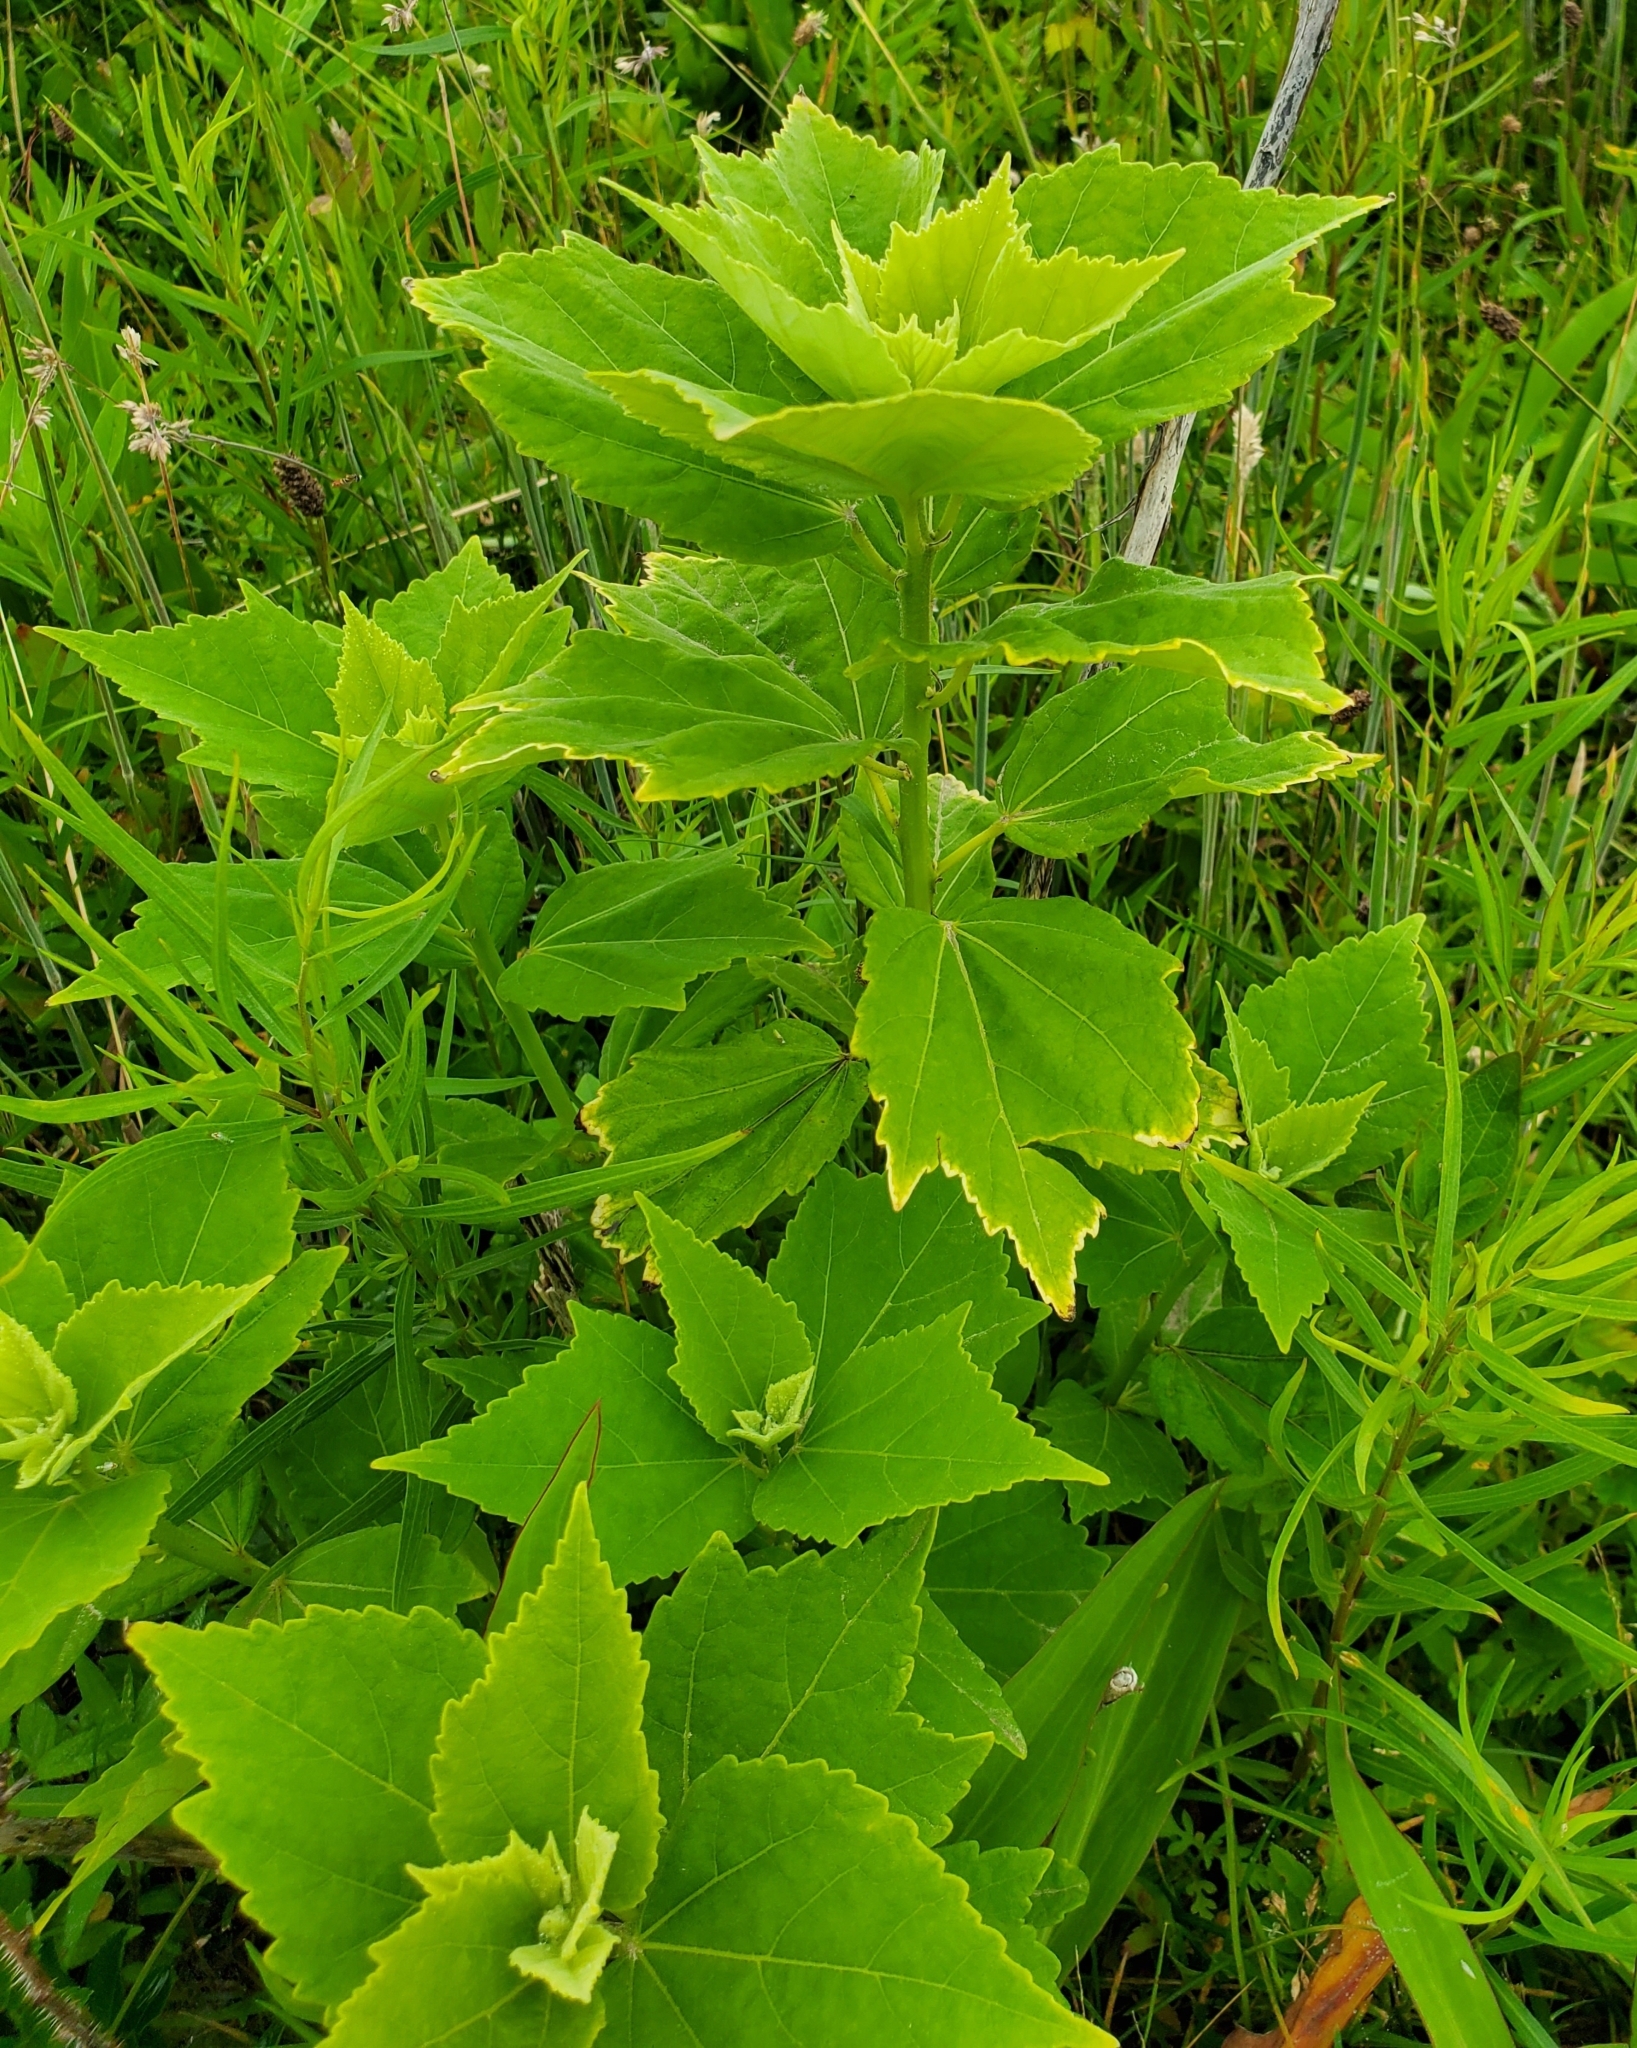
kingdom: Plantae
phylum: Tracheophyta
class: Magnoliopsida
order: Malvales
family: Malvaceae
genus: Hibiscus
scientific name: Hibiscus moscheutos
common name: Common rose-mallow
